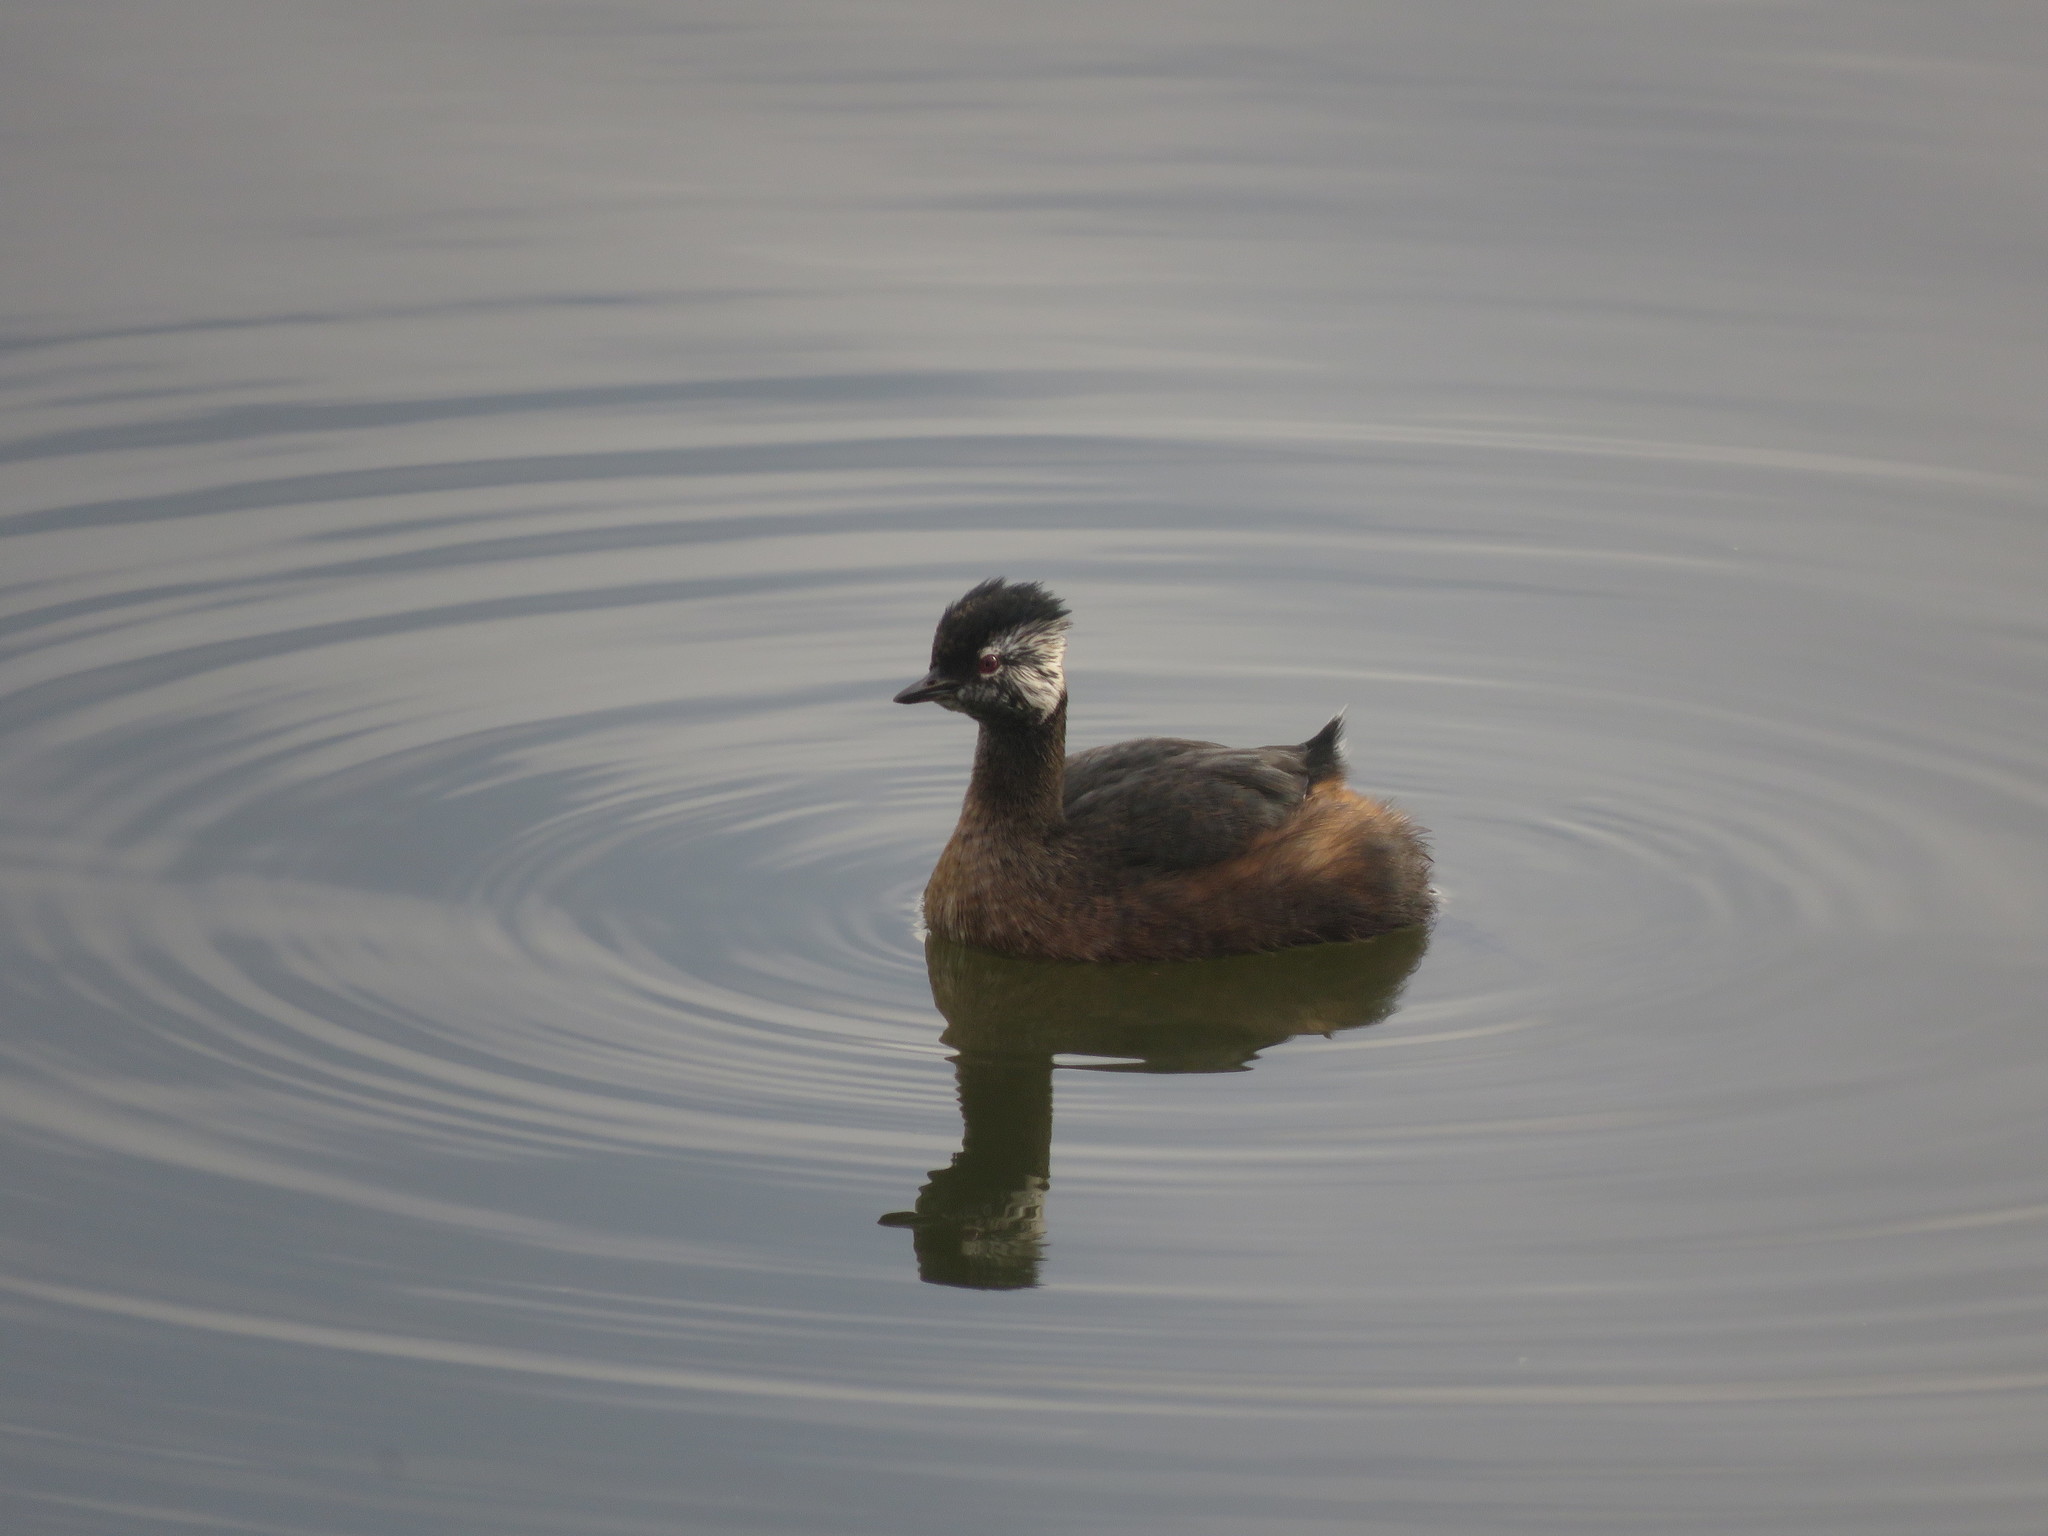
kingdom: Animalia
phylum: Chordata
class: Aves
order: Podicipediformes
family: Podicipedidae
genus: Rollandia
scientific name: Rollandia rolland
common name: White-tufted grebe
